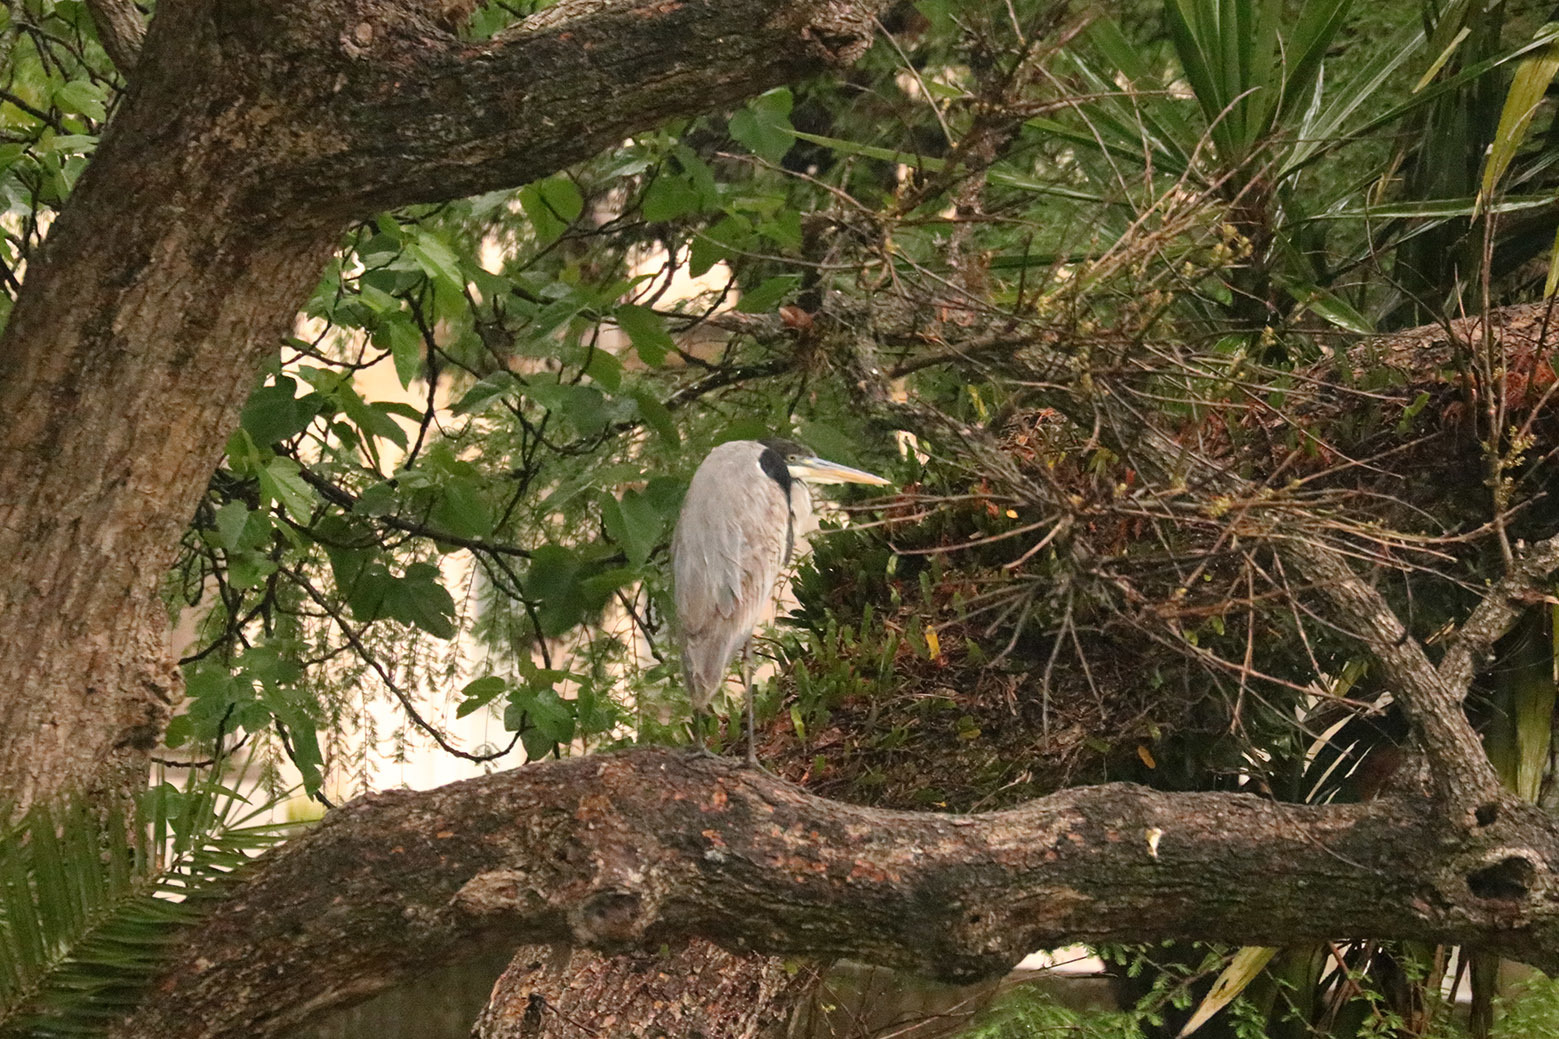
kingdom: Animalia
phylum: Chordata
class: Aves
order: Pelecaniformes
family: Ardeidae
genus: Ardea
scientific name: Ardea cocoi
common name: Cocoi heron
